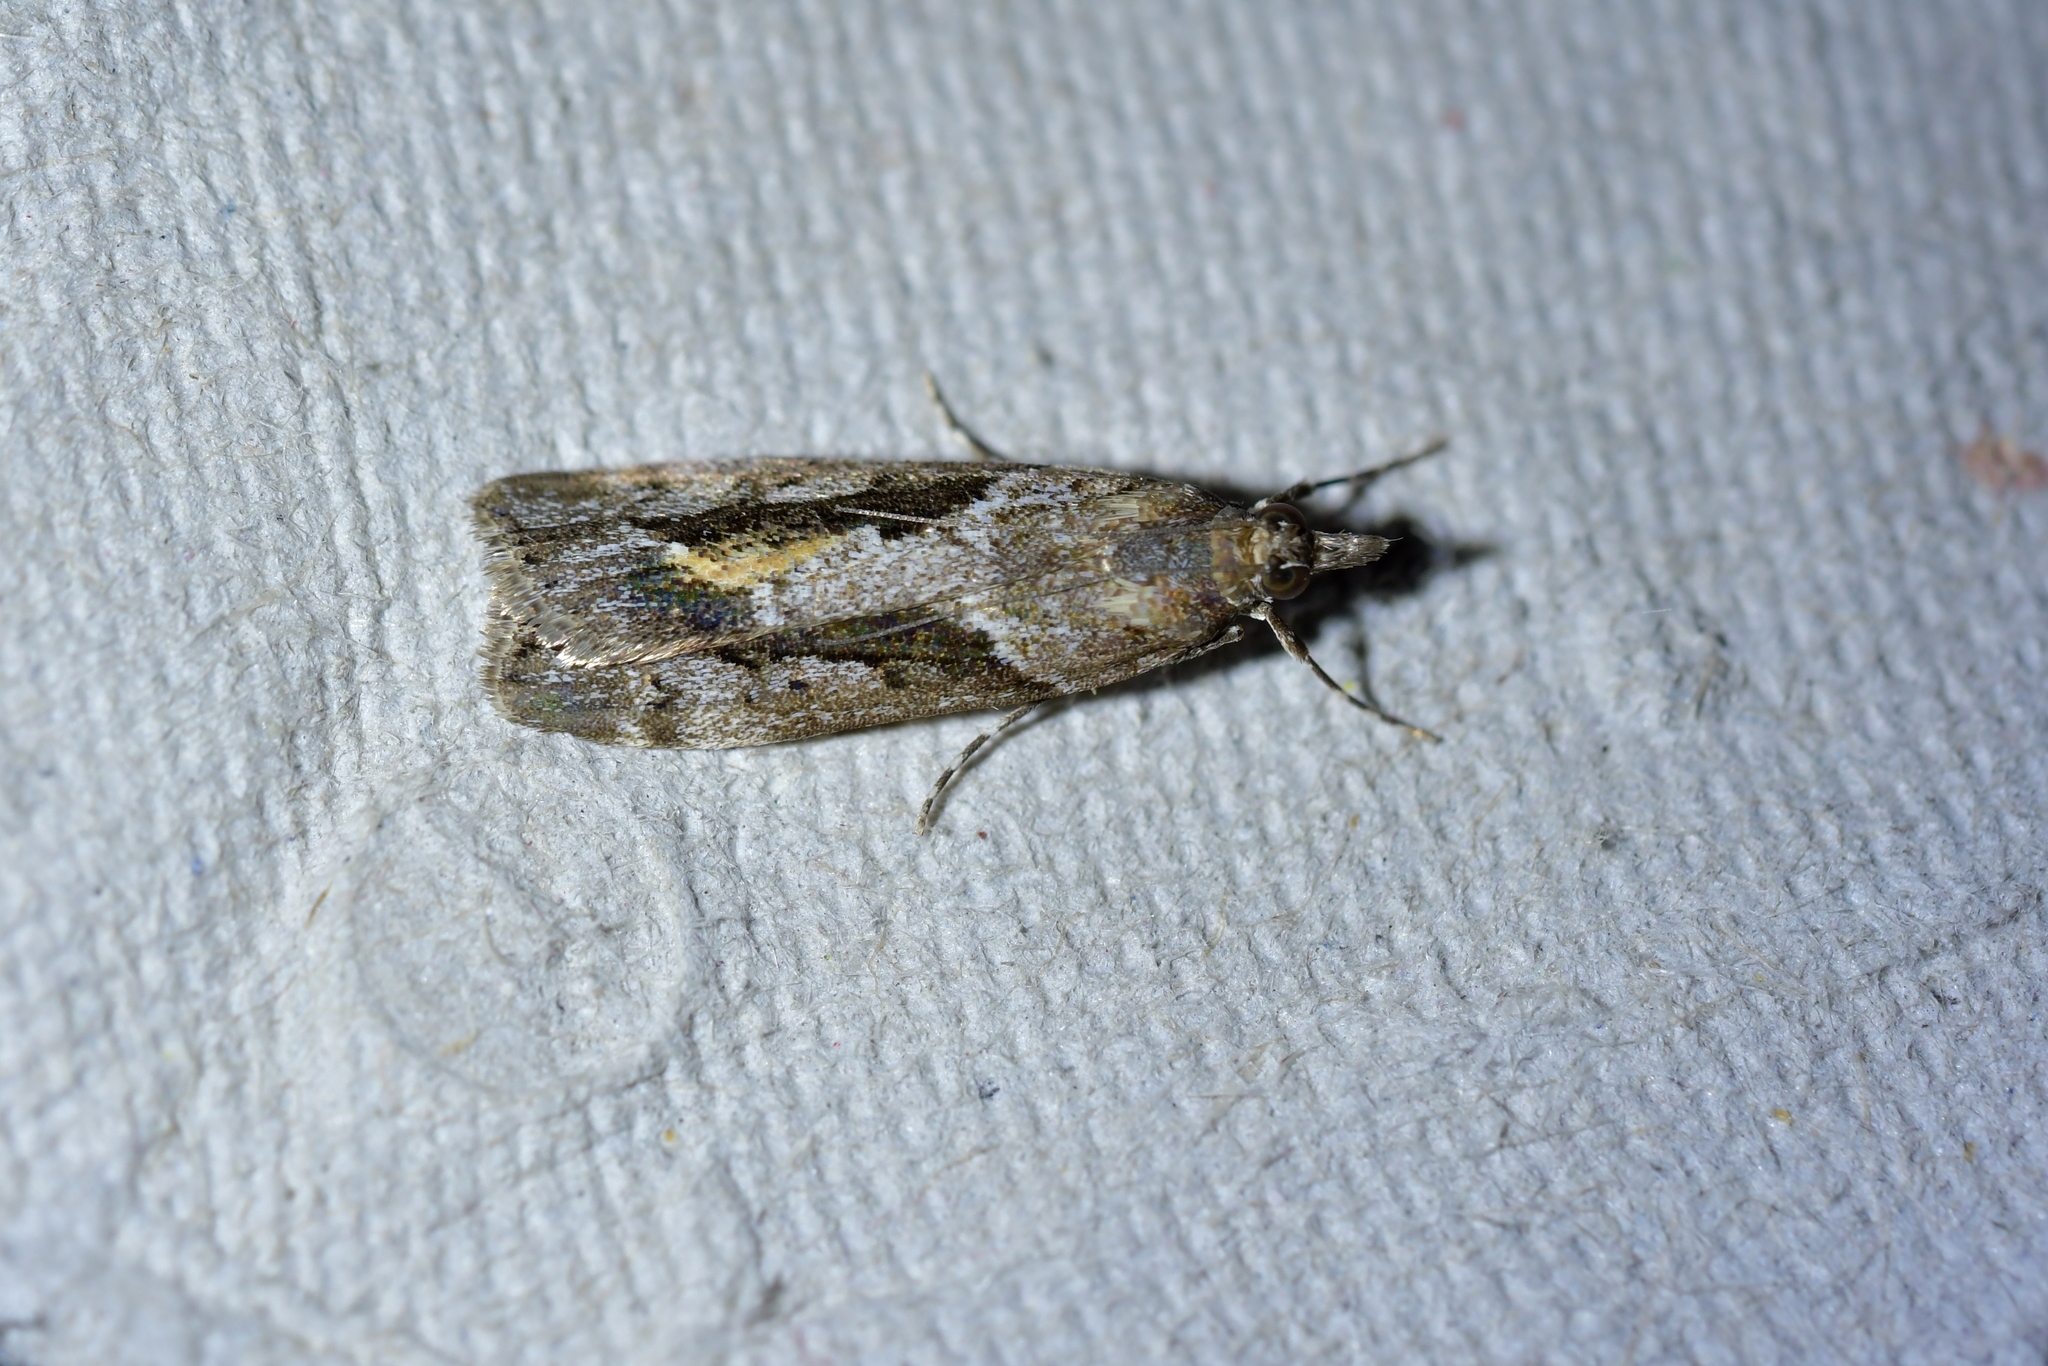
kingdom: Animalia
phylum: Arthropoda
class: Insecta
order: Lepidoptera
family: Crambidae
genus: Eudonia
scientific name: Eudonia submarginalis
